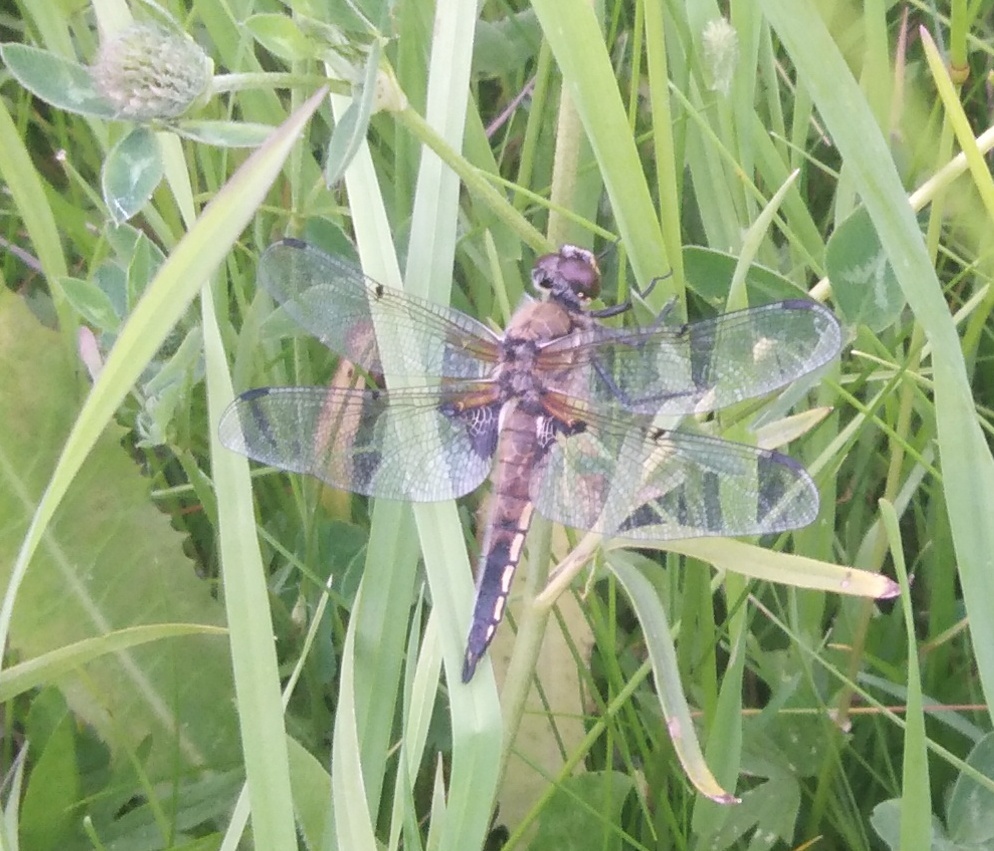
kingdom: Animalia
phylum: Arthropoda
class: Insecta
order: Odonata
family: Libellulidae
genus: Libellula
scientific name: Libellula quadrimaculata
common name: Four-spotted chaser
